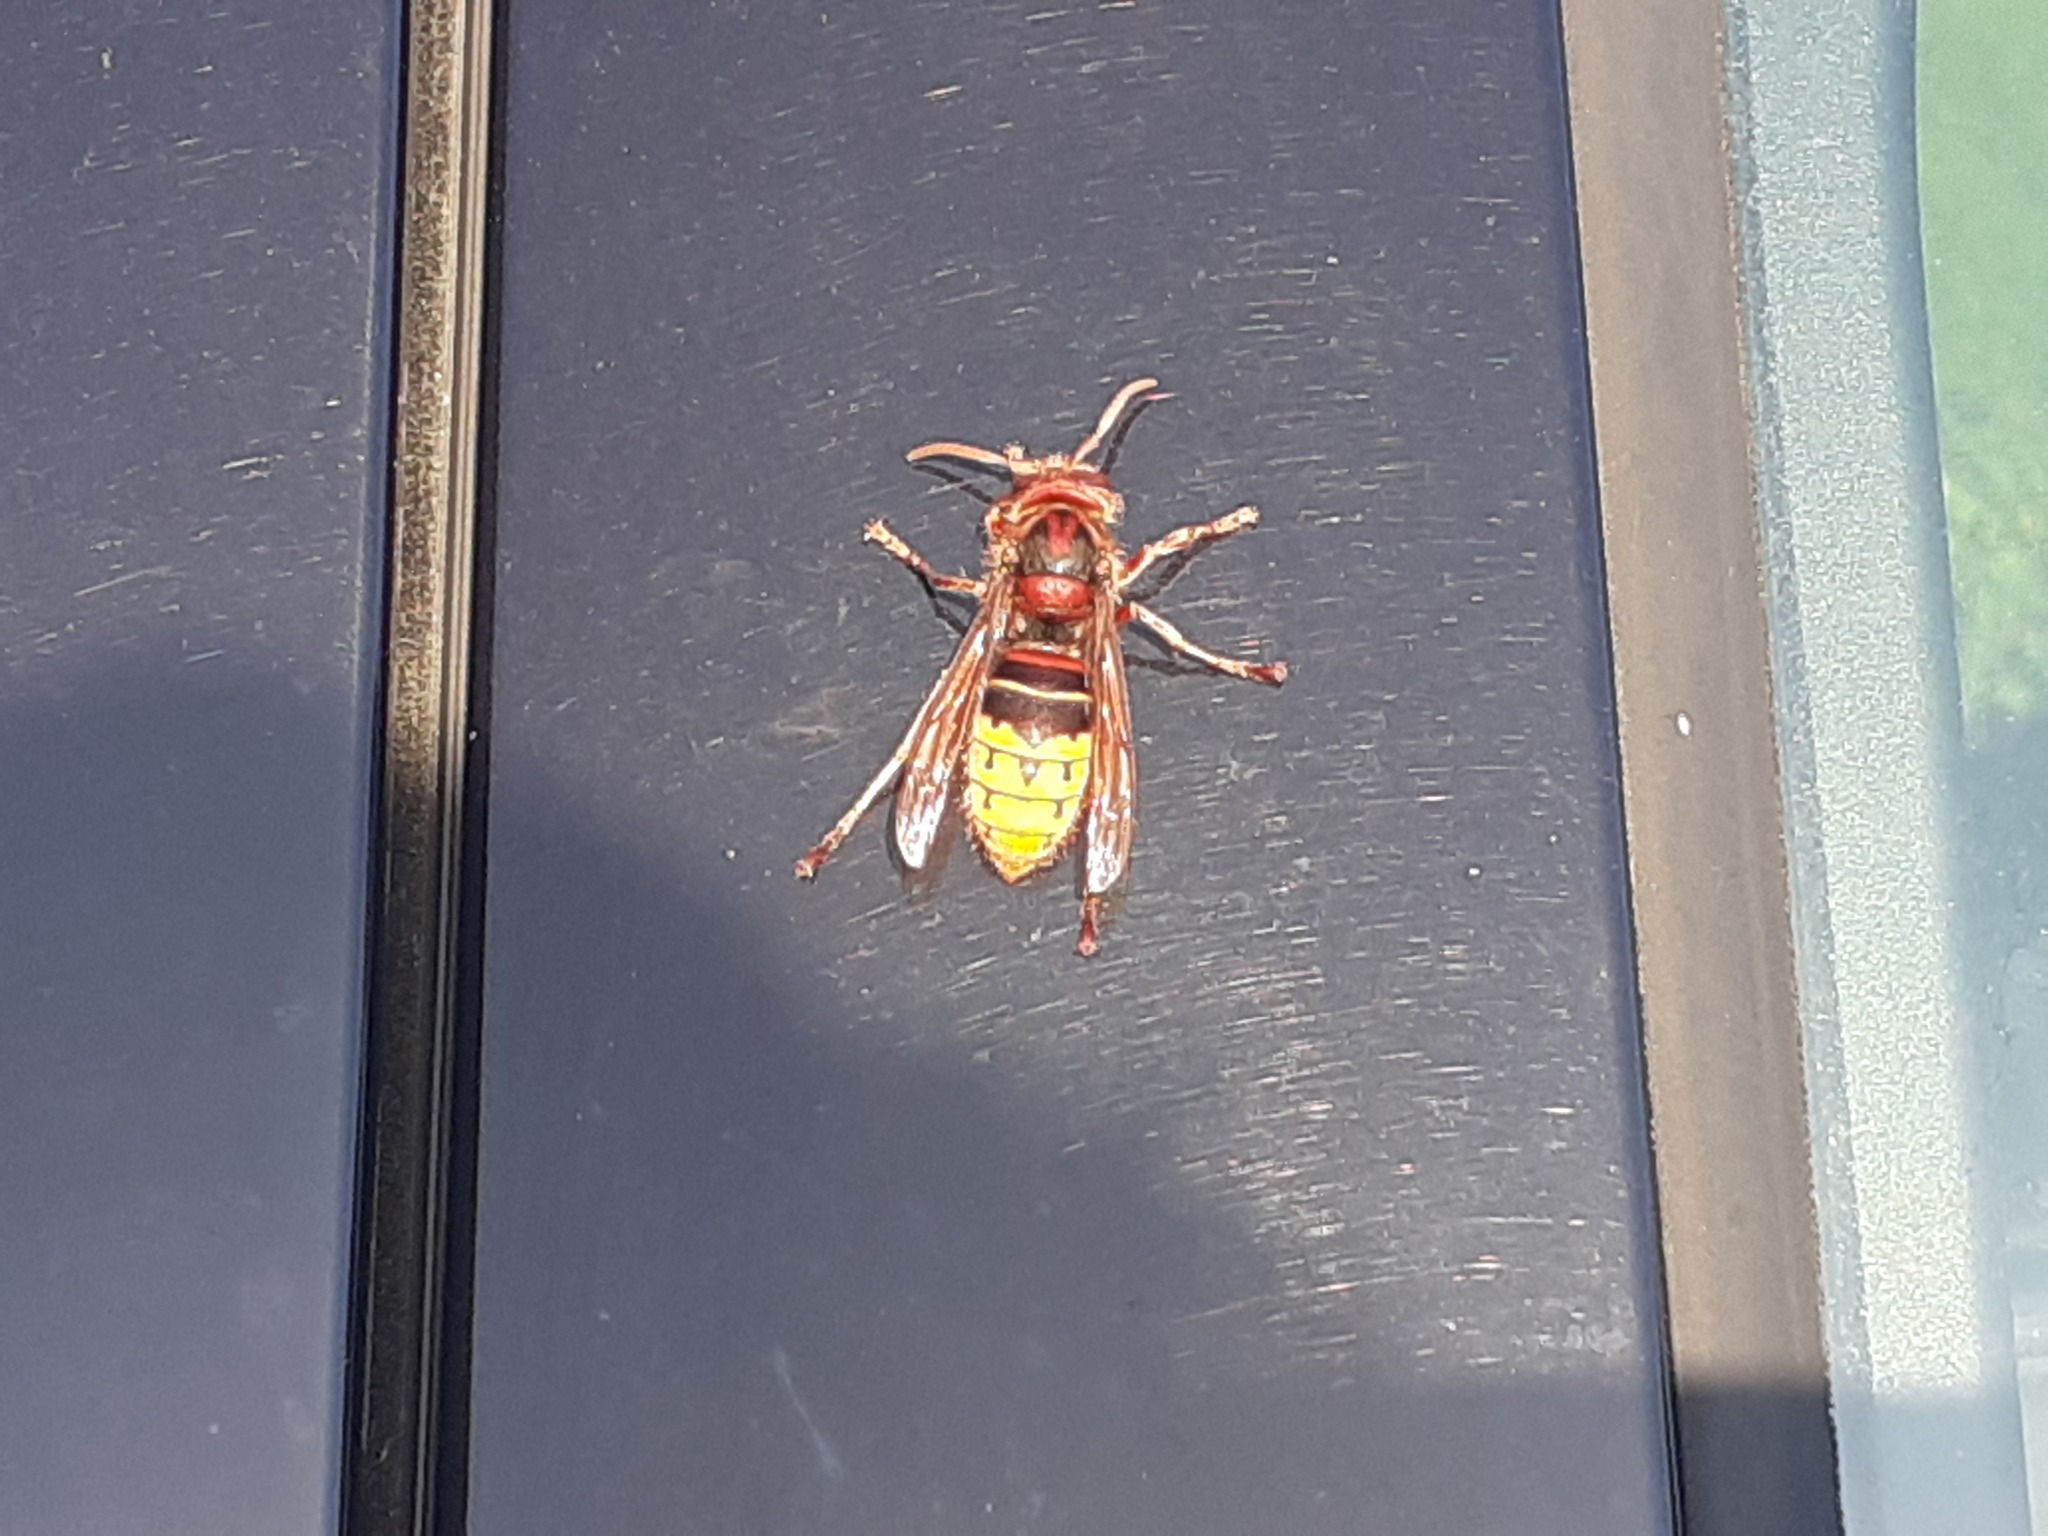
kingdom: Animalia
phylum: Arthropoda
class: Insecta
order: Hymenoptera
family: Vespidae
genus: Vespa
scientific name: Vespa crabro
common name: Hornet
